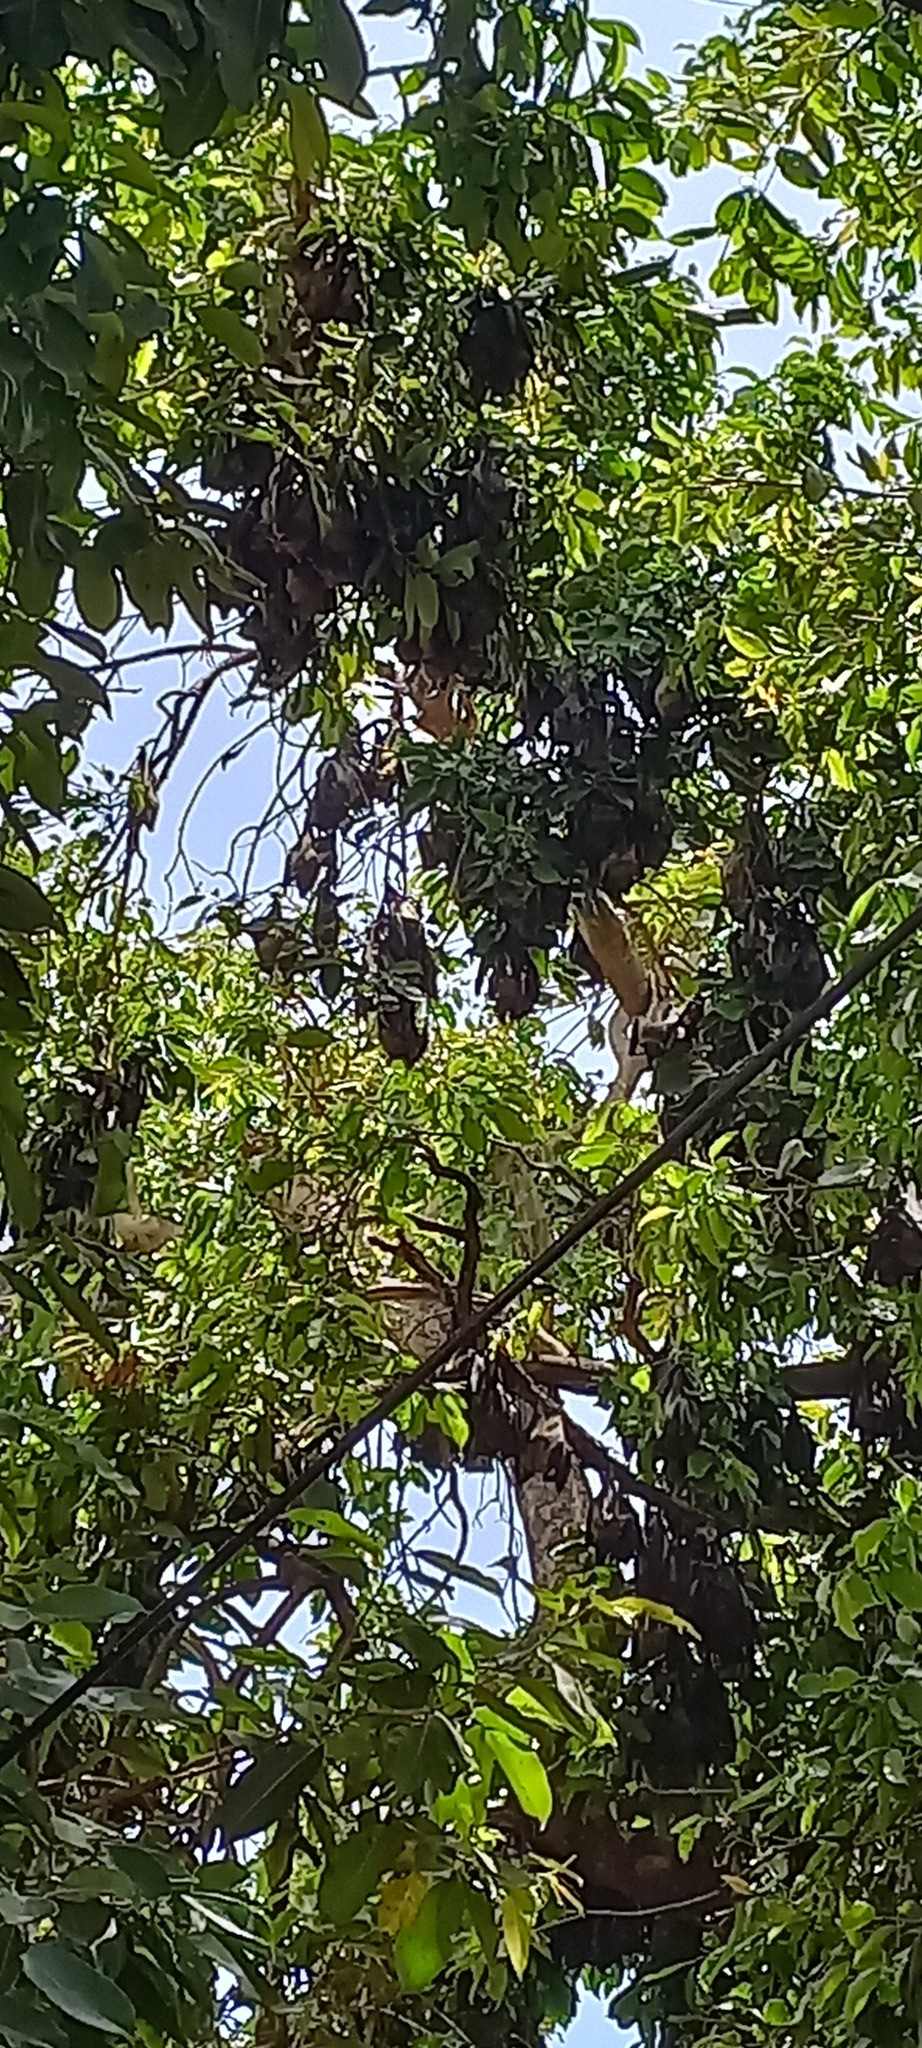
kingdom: Animalia
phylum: Chordata
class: Mammalia
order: Chiroptera
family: Pteropodidae
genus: Eidolon
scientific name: Eidolon helvum
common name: Straw-colored fruit bat
